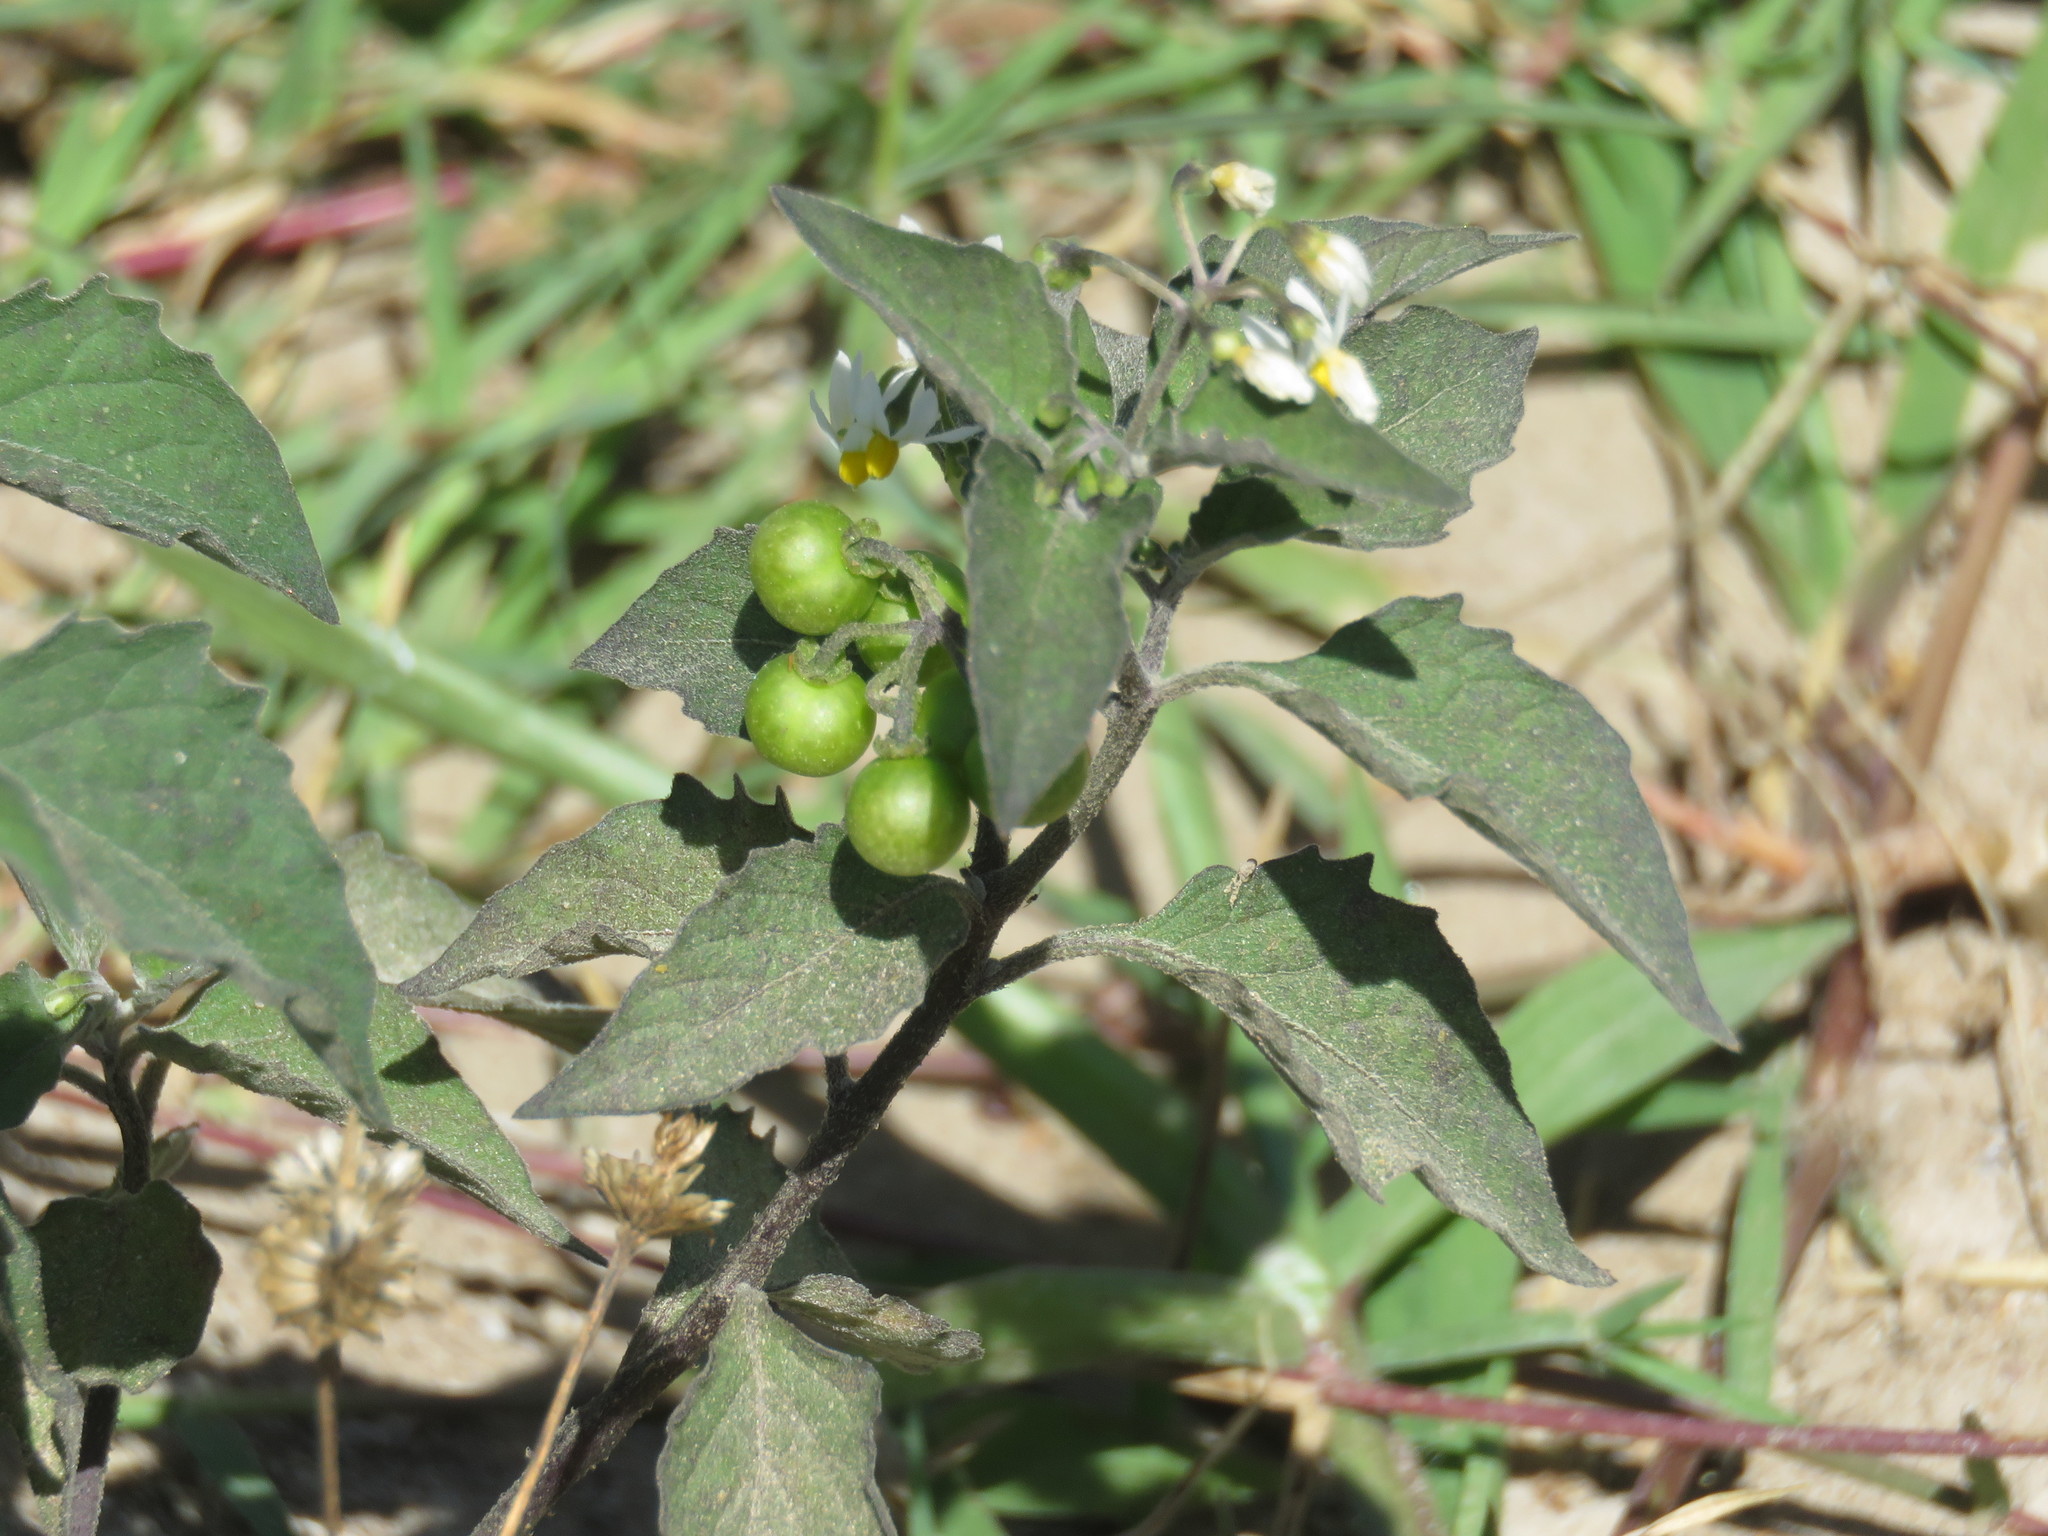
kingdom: Plantae
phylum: Tracheophyta
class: Magnoliopsida
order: Solanales
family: Solanaceae
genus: Solanum
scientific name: Solanum americanum
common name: American black nightshade
